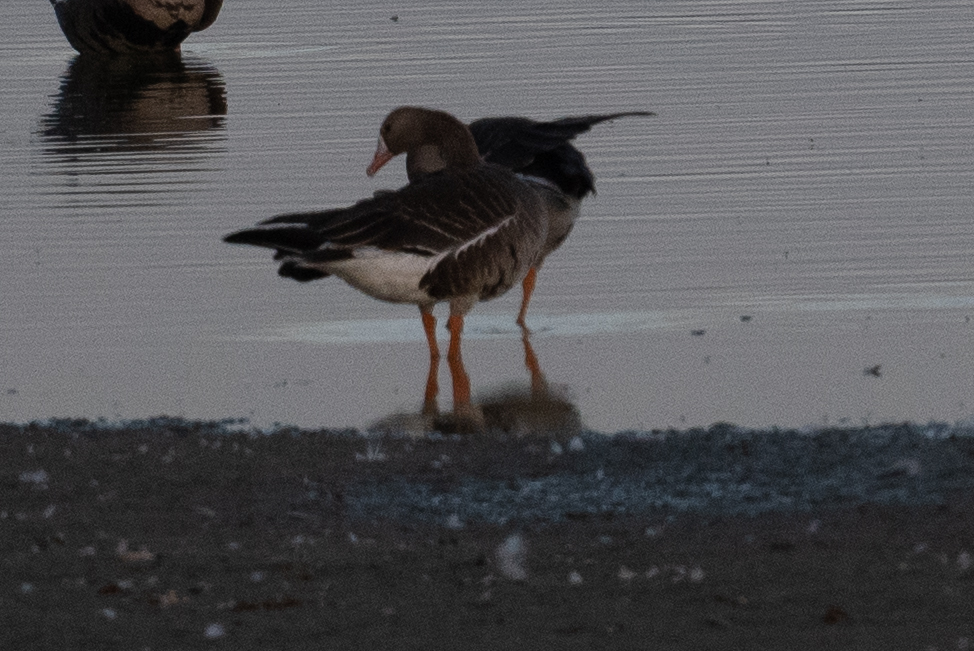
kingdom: Animalia
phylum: Chordata
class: Aves
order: Anseriformes
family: Anatidae
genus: Anser
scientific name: Anser albifrons
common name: Greater white-fronted goose
